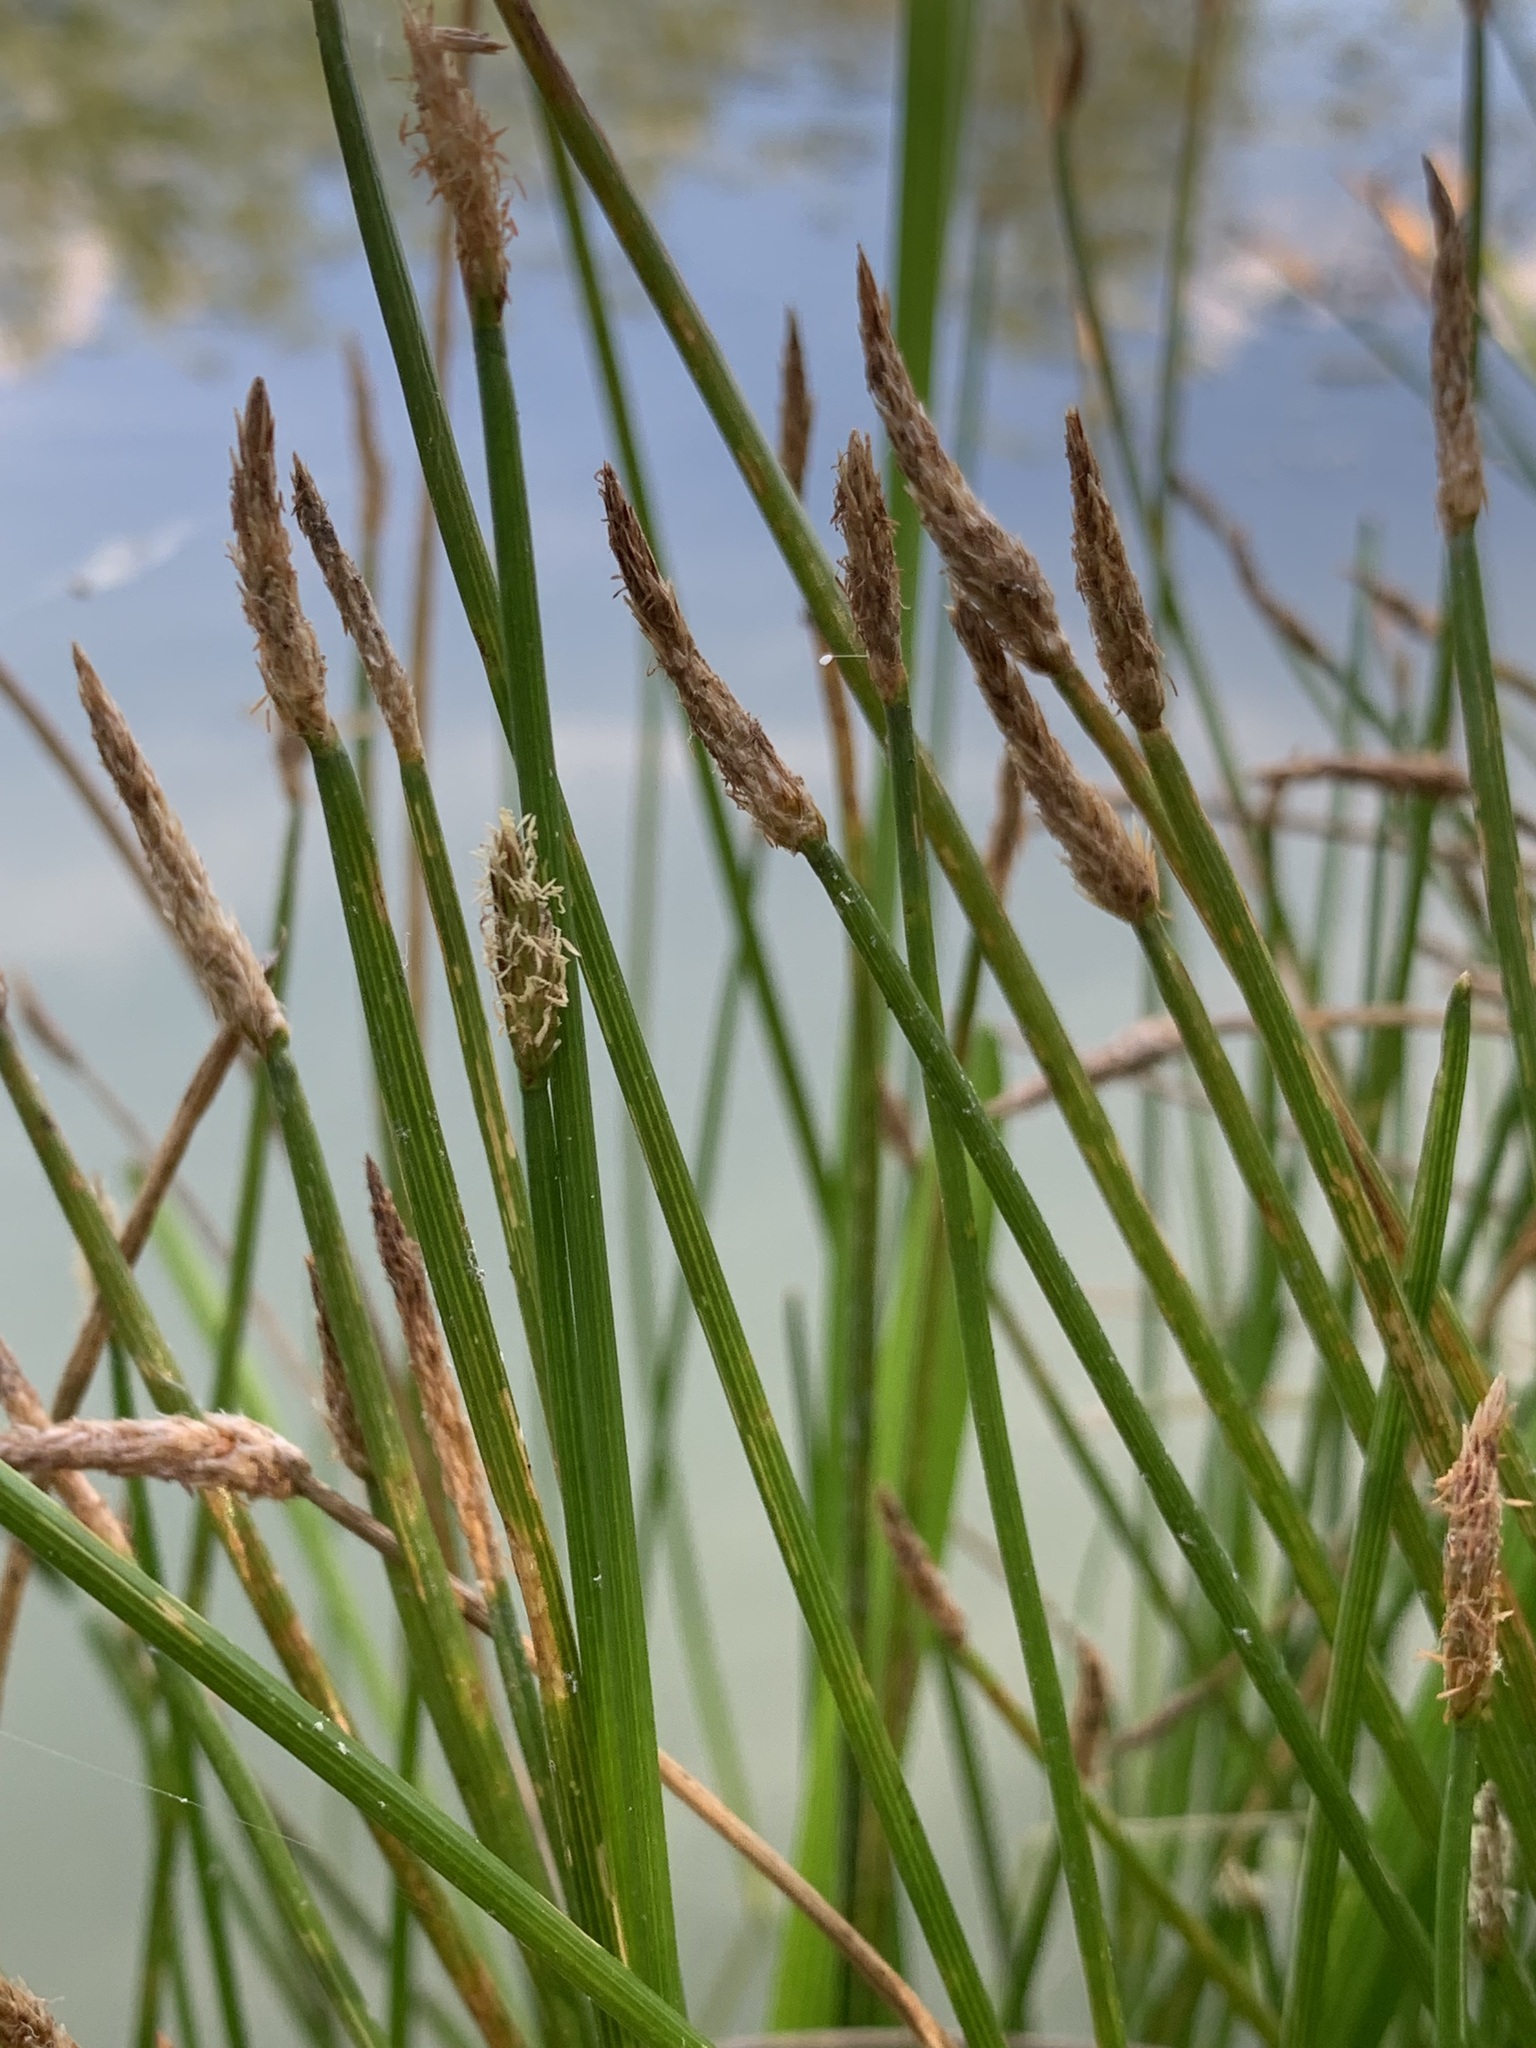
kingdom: Plantae
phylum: Tracheophyta
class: Liliopsida
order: Poales
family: Cyperaceae
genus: Eleocharis
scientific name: Eleocharis palustris
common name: Common spike-rush
